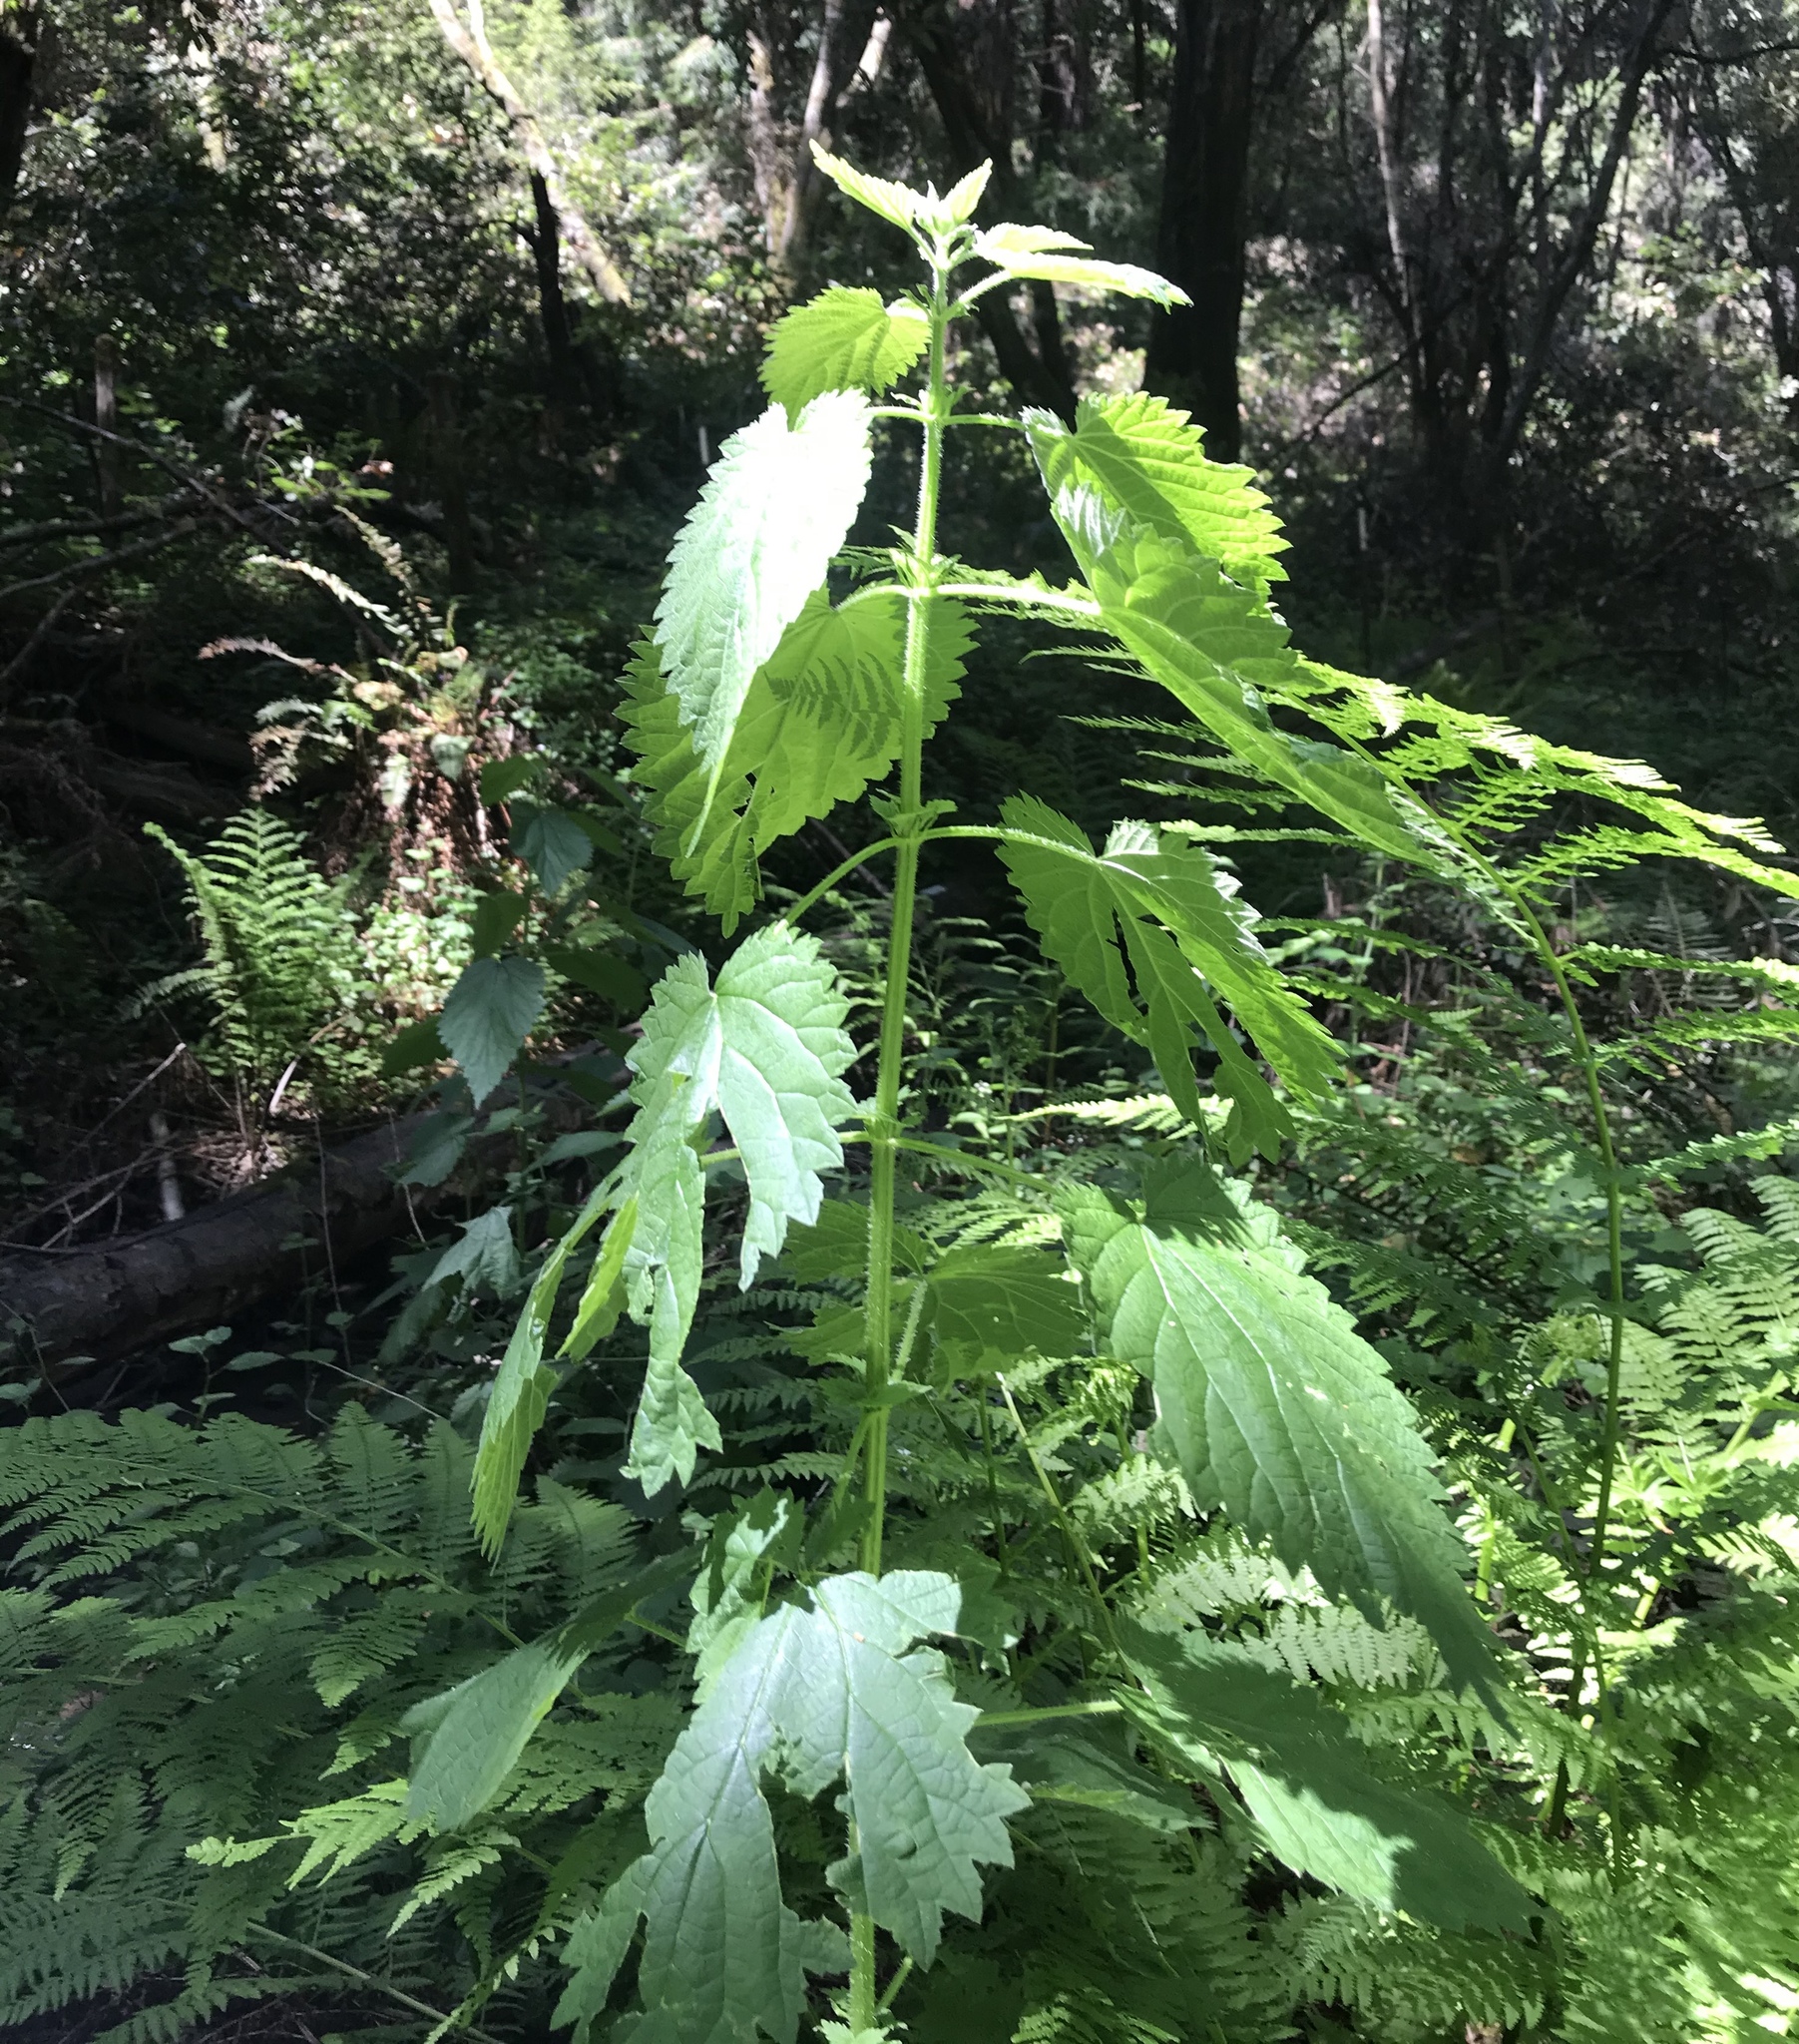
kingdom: Plantae
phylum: Tracheophyta
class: Magnoliopsida
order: Rosales
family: Urticaceae
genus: Urtica
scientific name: Urtica dioica
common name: Common nettle
